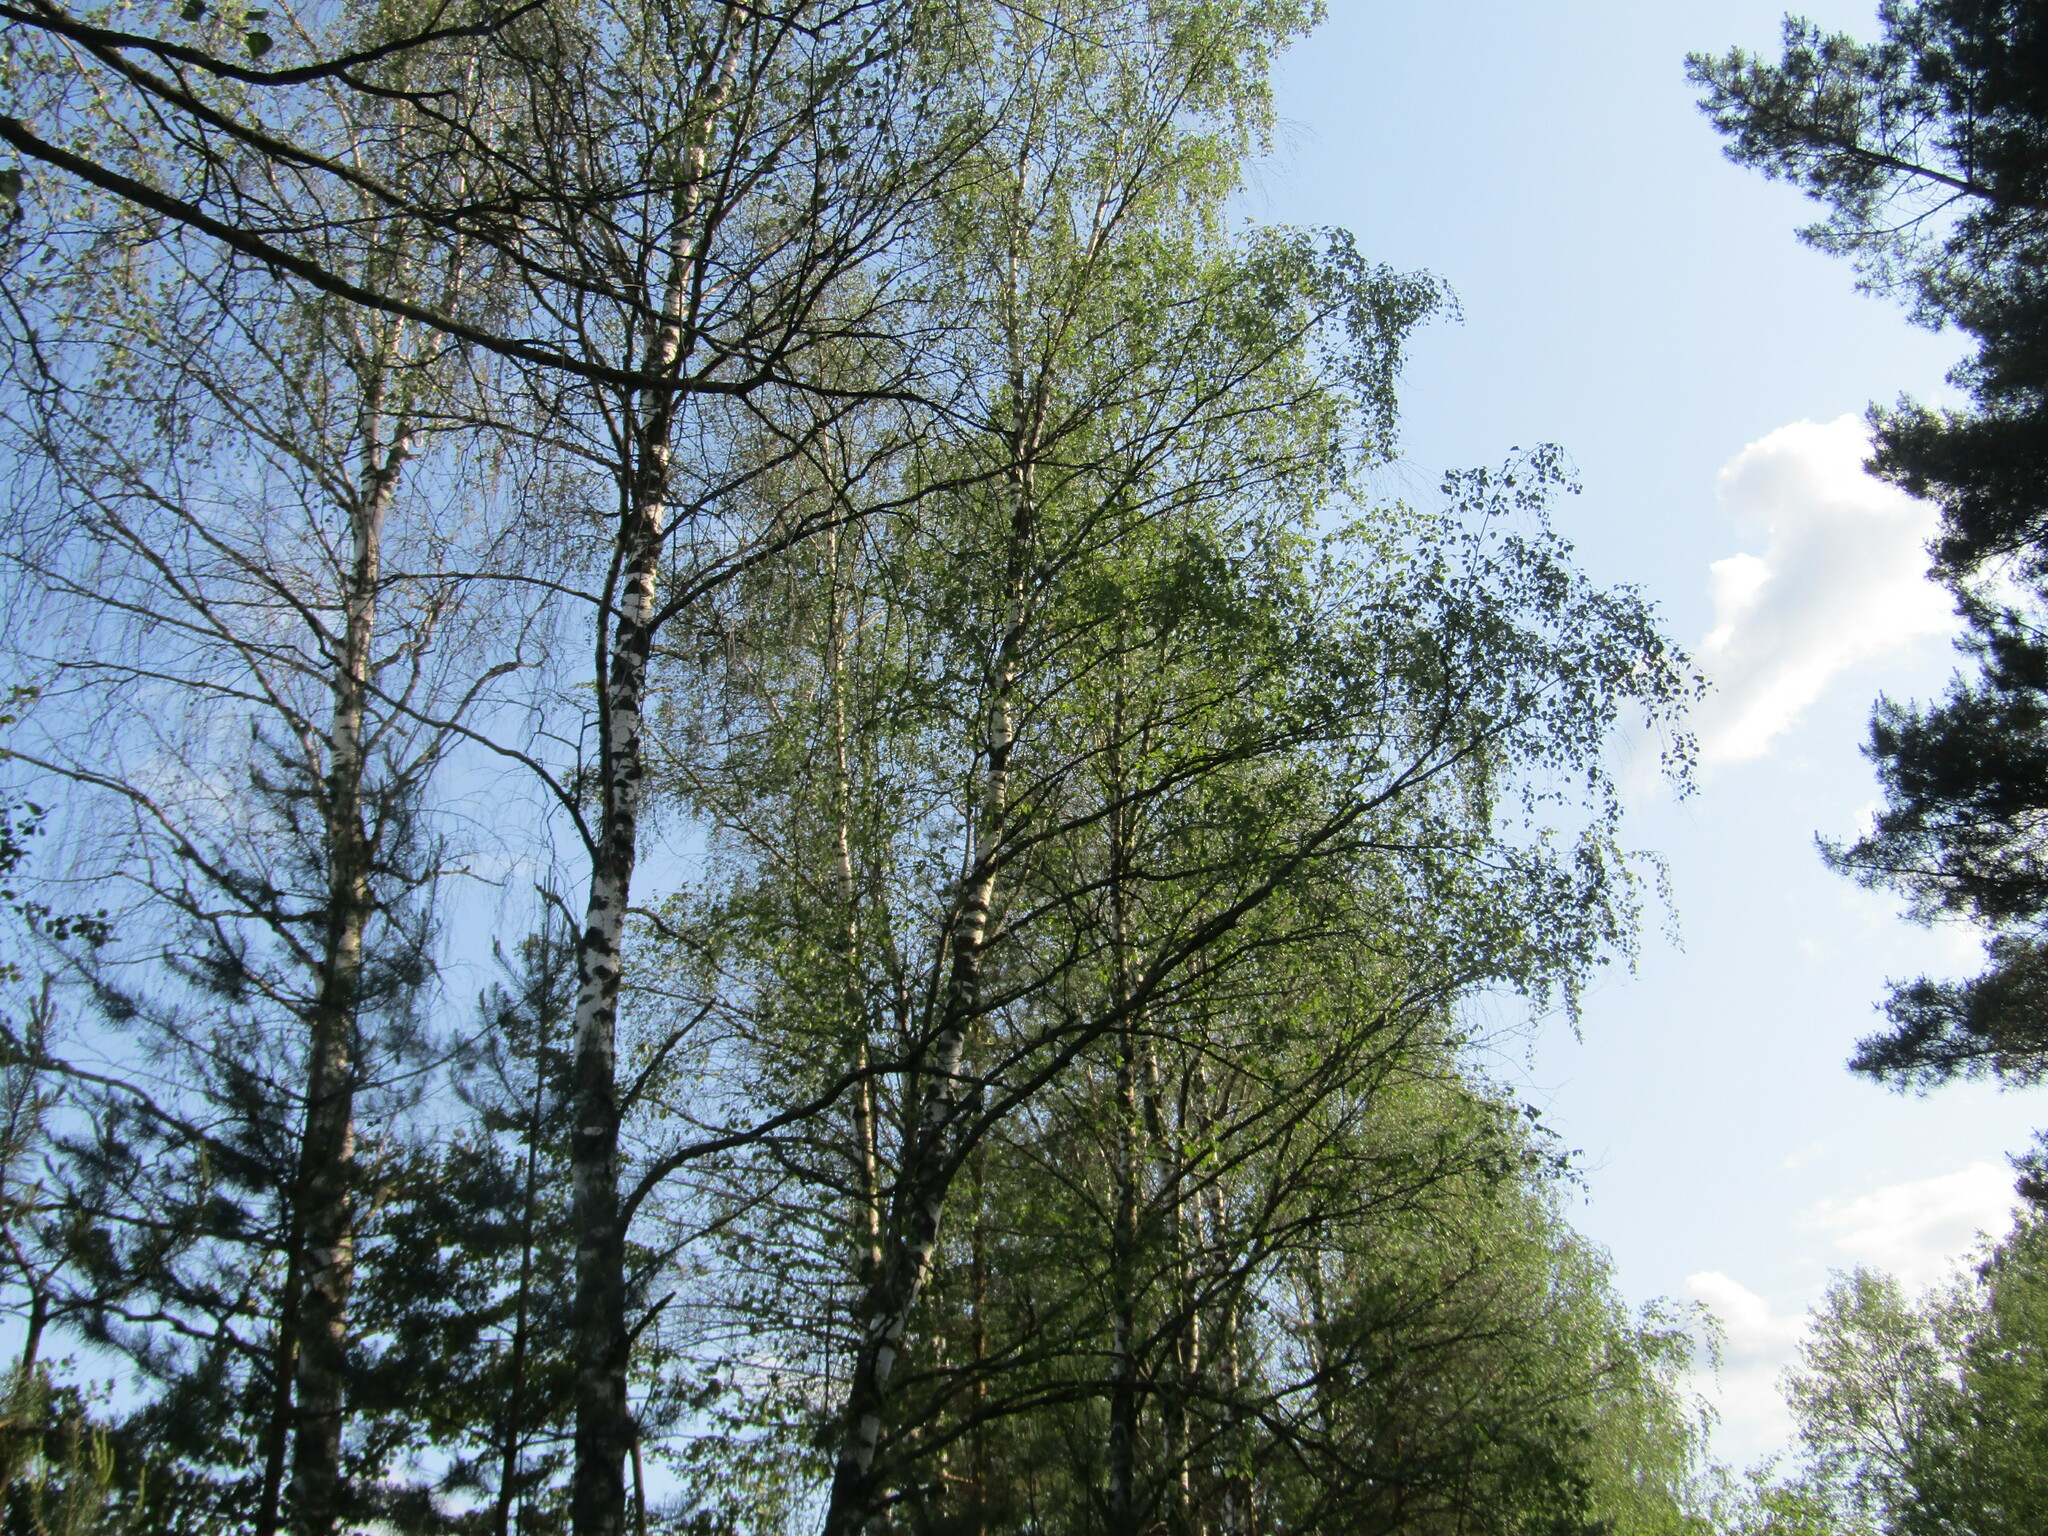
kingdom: Plantae
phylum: Tracheophyta
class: Magnoliopsida
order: Fagales
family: Betulaceae
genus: Betula
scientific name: Betula pendula
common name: Silver birch
